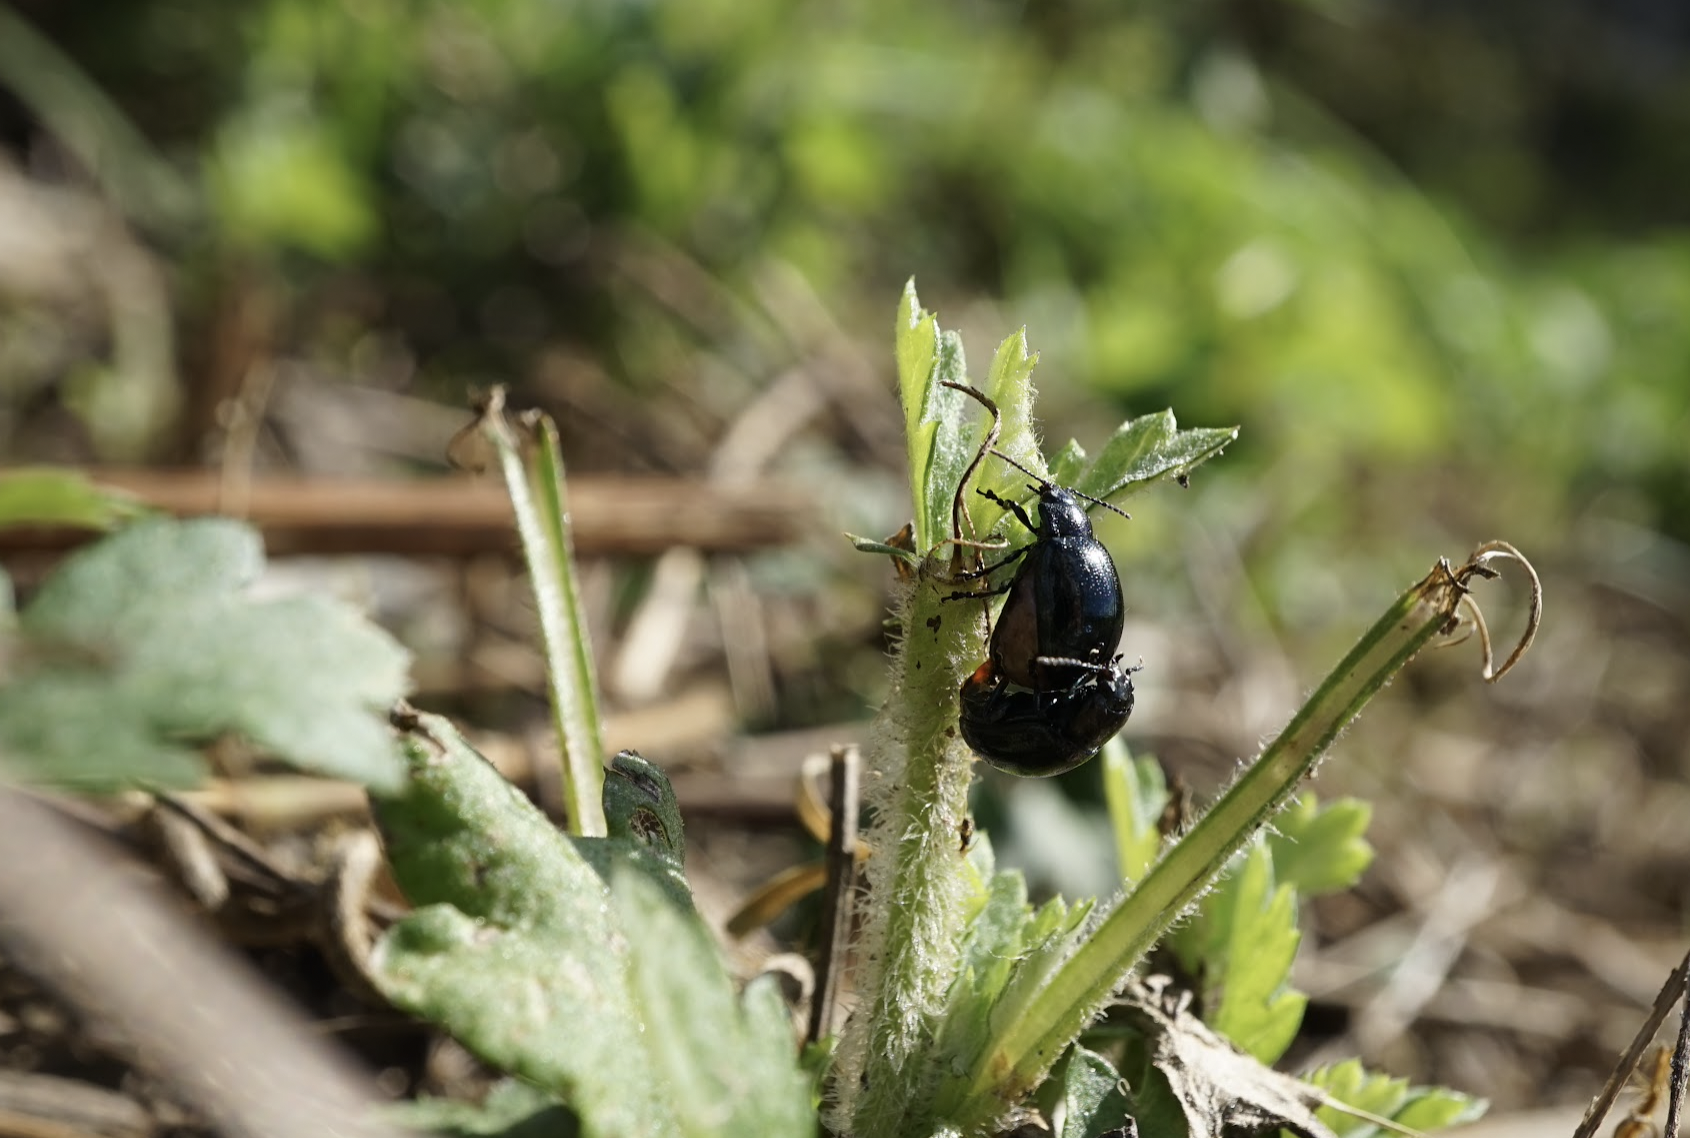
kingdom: Animalia
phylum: Arthropoda
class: Insecta
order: Coleoptera
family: Chrysomelidae
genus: Chrysolina
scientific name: Chrysolina aurichalcea
